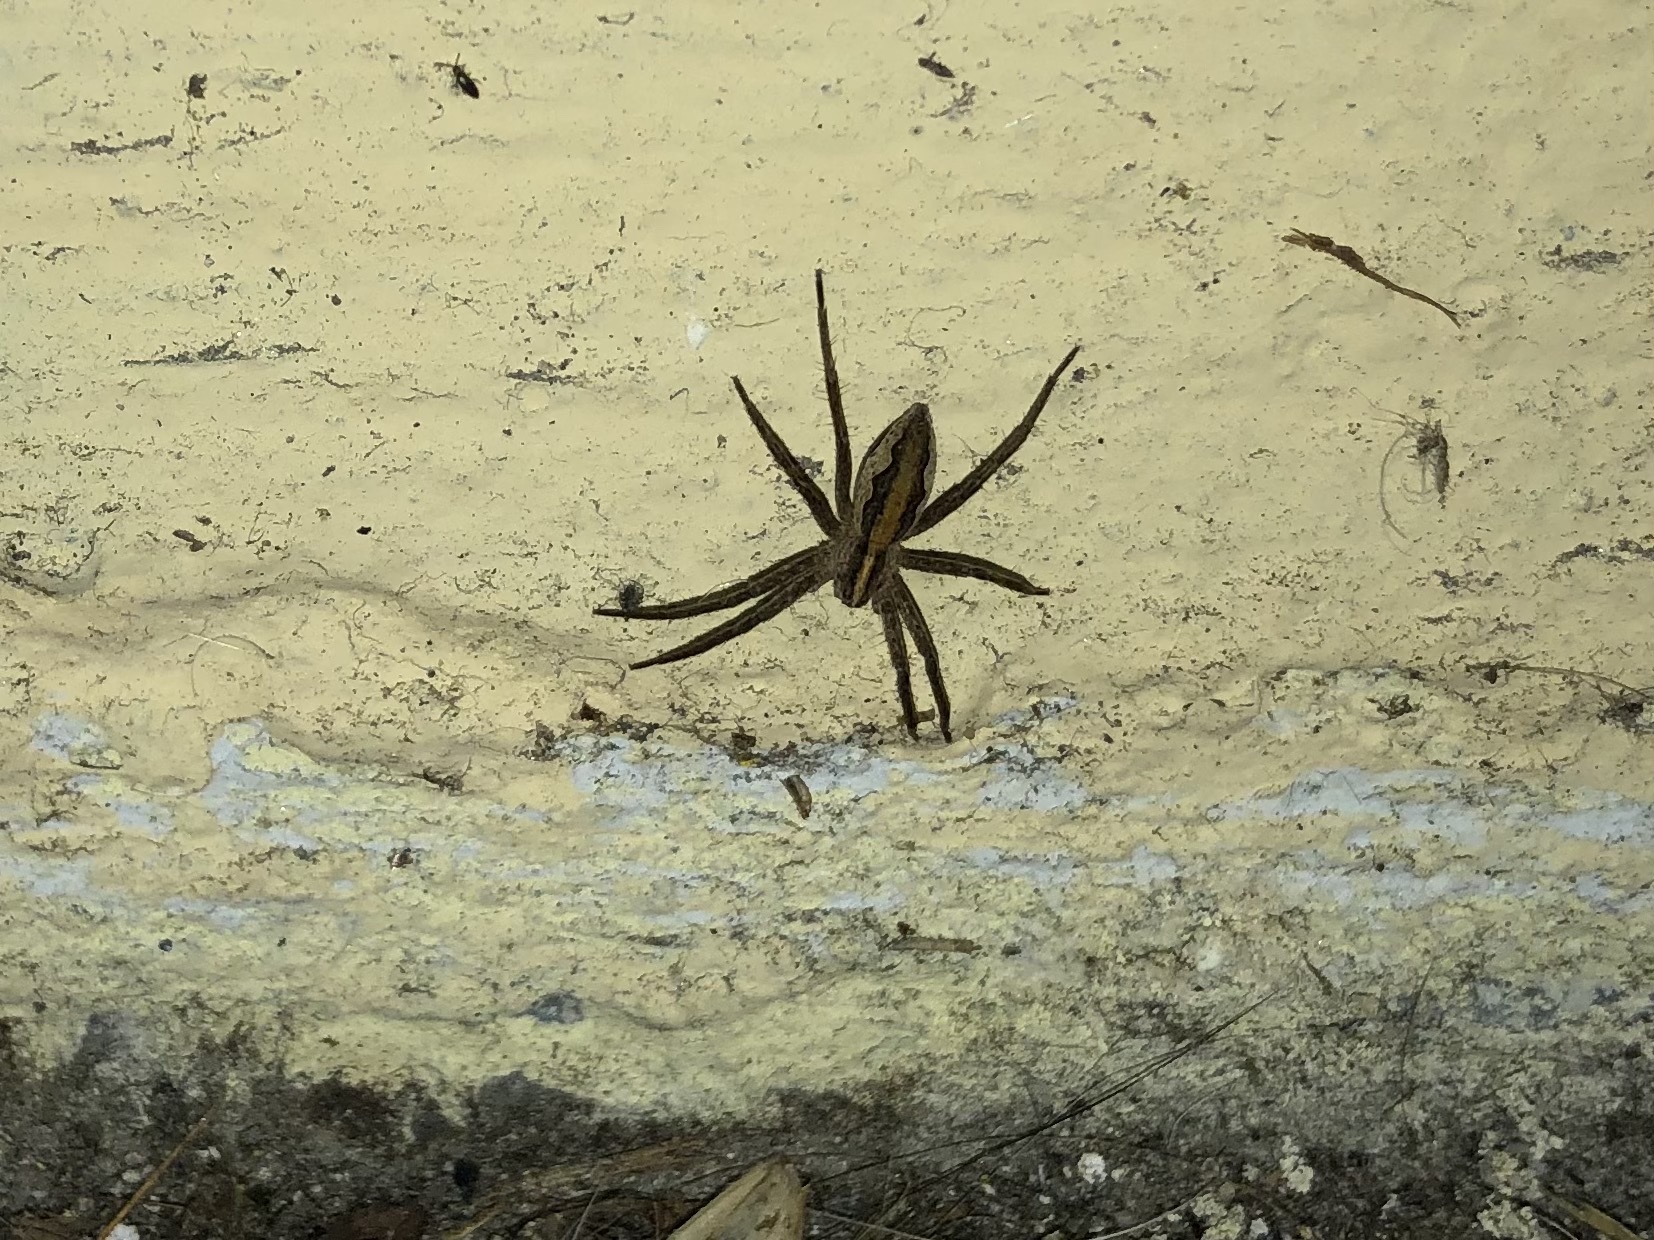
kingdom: Animalia
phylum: Arthropoda
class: Arachnida
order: Araneae
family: Pisauridae
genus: Pisaura
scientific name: Pisaura mirabilis
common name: Tent spider
